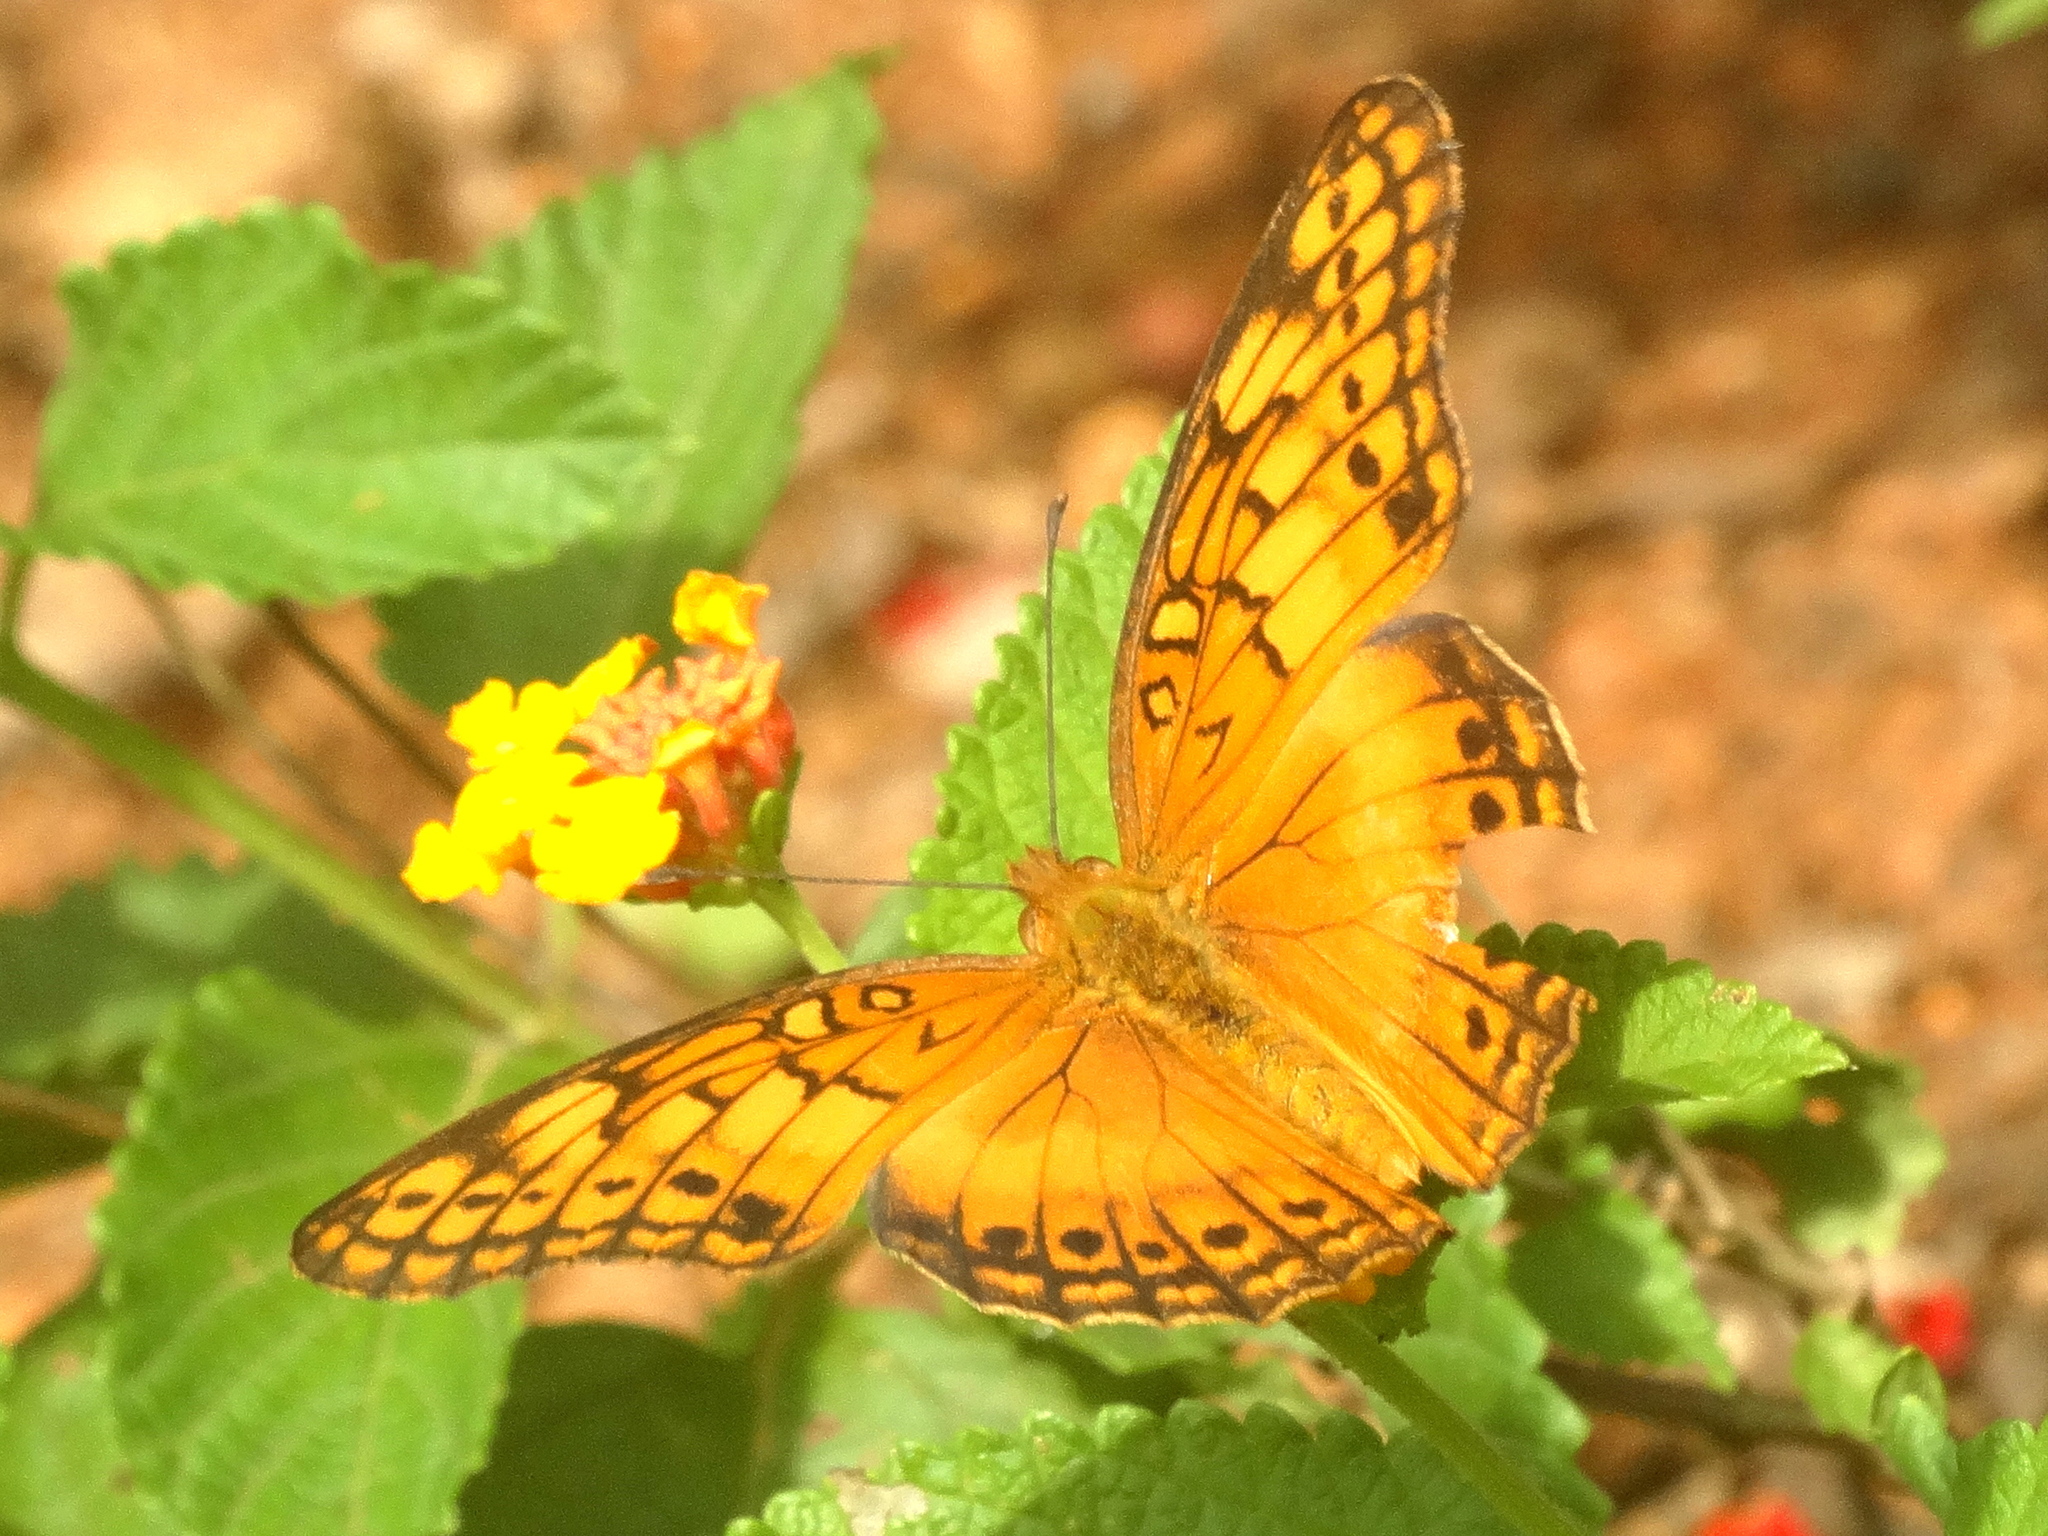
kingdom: Animalia
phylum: Arthropoda
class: Insecta
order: Lepidoptera
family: Nymphalidae
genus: Euptoieta
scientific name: Euptoieta hegesia
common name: Mexican fritillary
